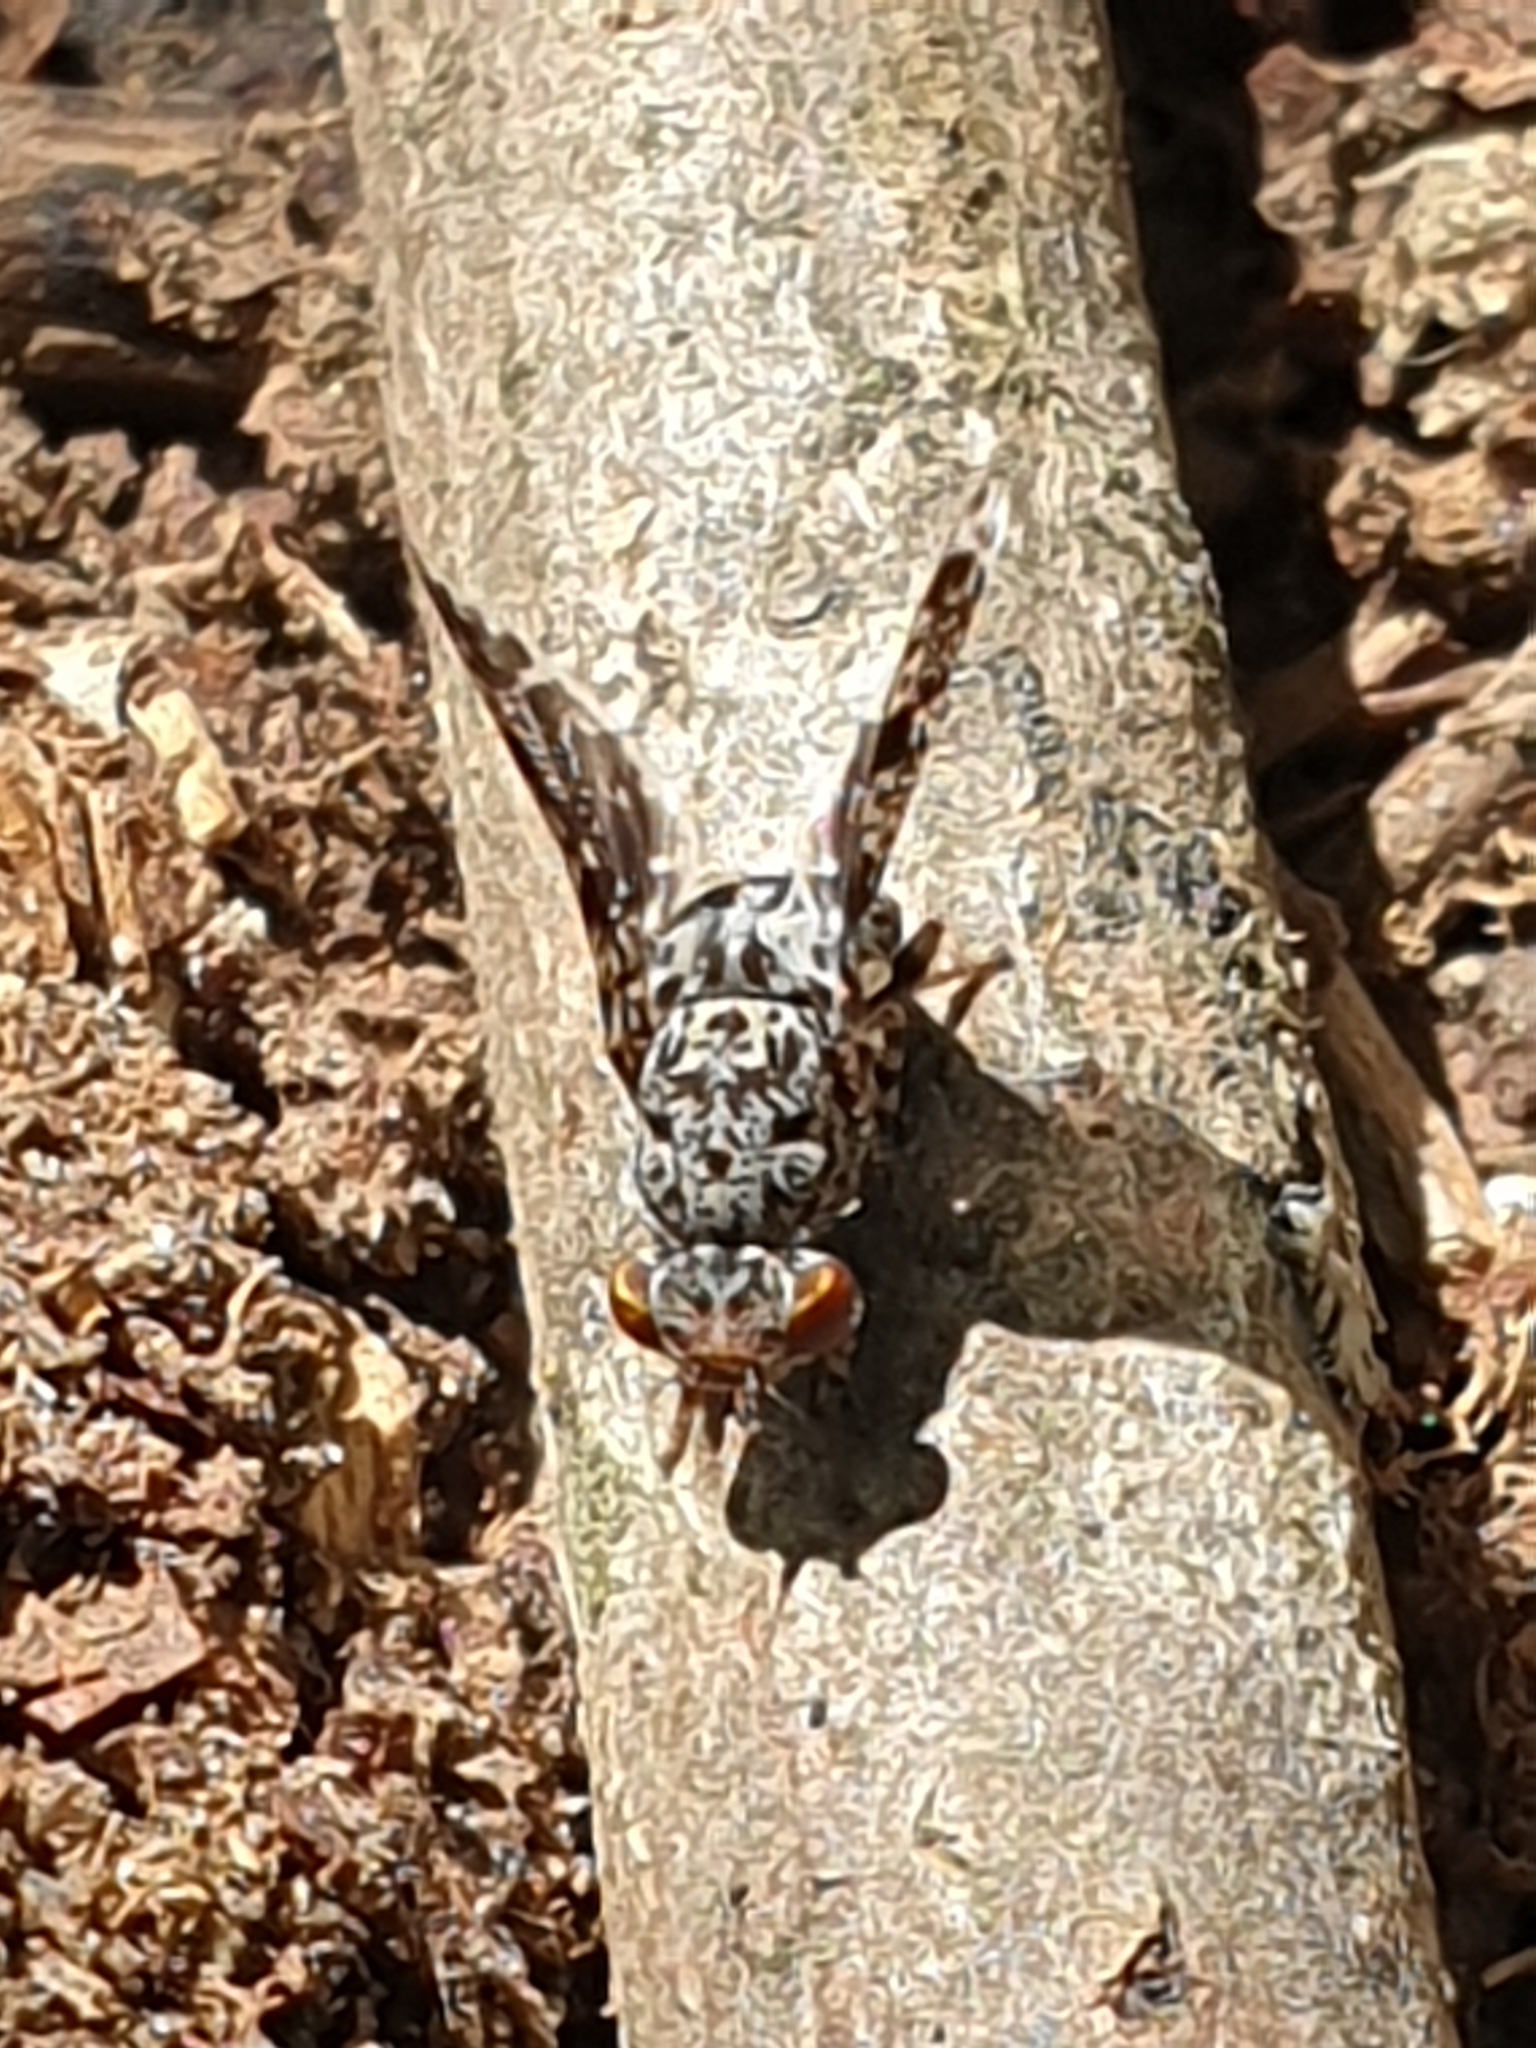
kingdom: Animalia
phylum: Arthropoda
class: Insecta
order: Diptera
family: Ulidiidae
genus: Callopistromyia
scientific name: Callopistromyia annulipes
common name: Peacock fly
